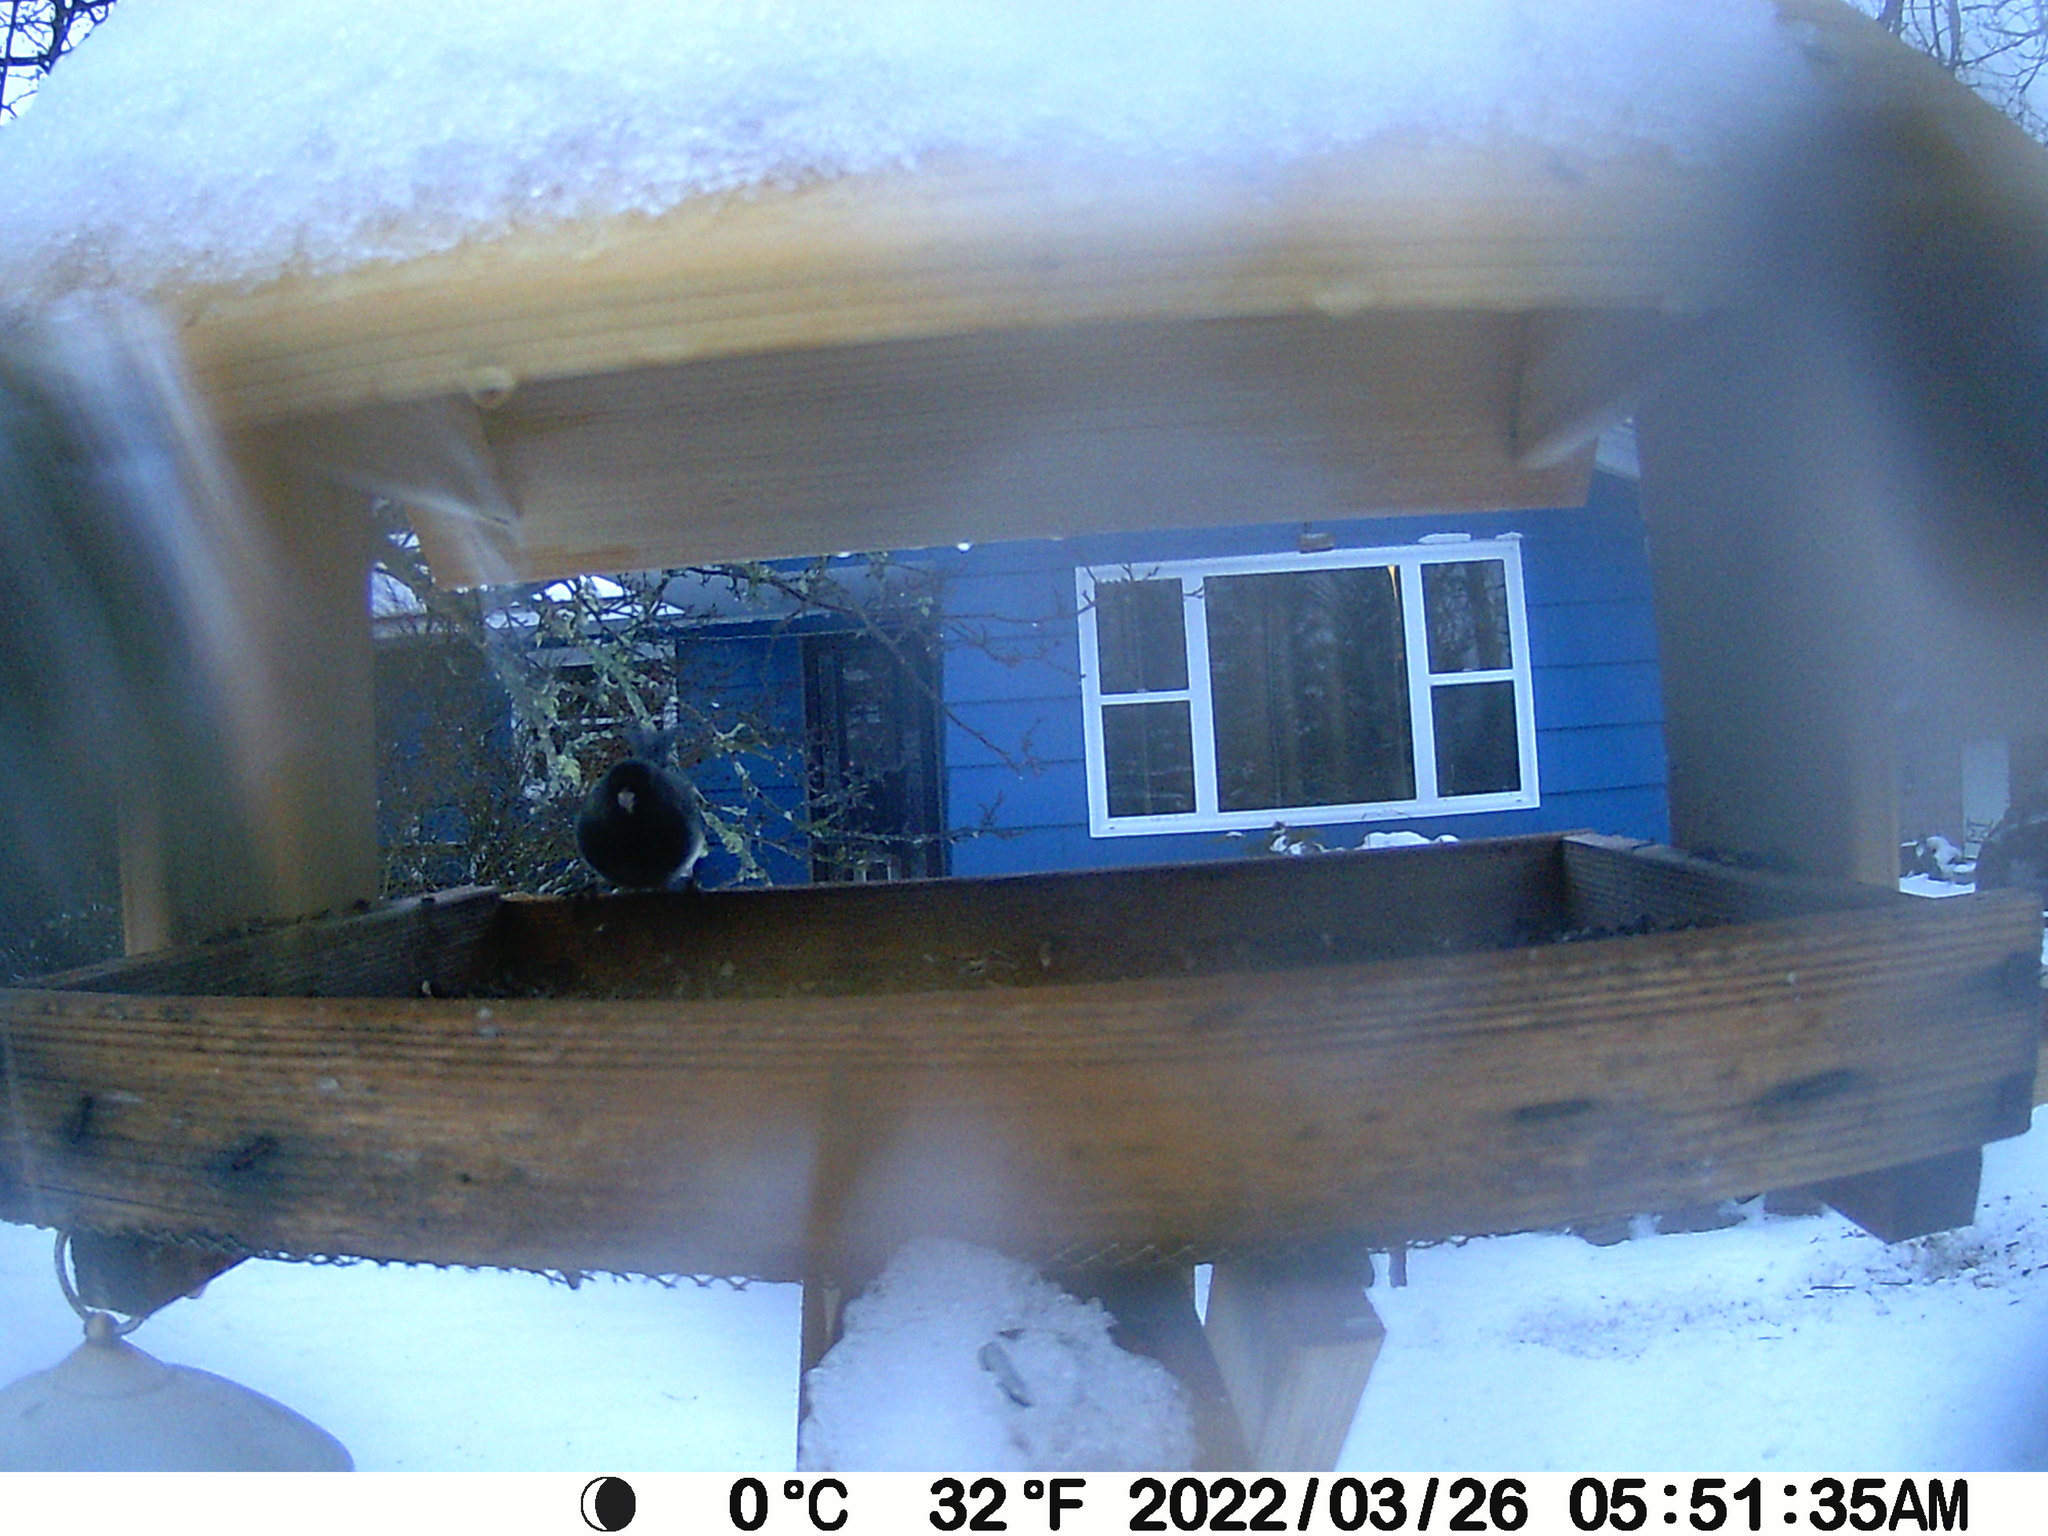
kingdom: Animalia
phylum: Chordata
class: Aves
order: Passeriformes
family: Passerellidae
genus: Junco
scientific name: Junco hyemalis
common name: Dark-eyed junco
